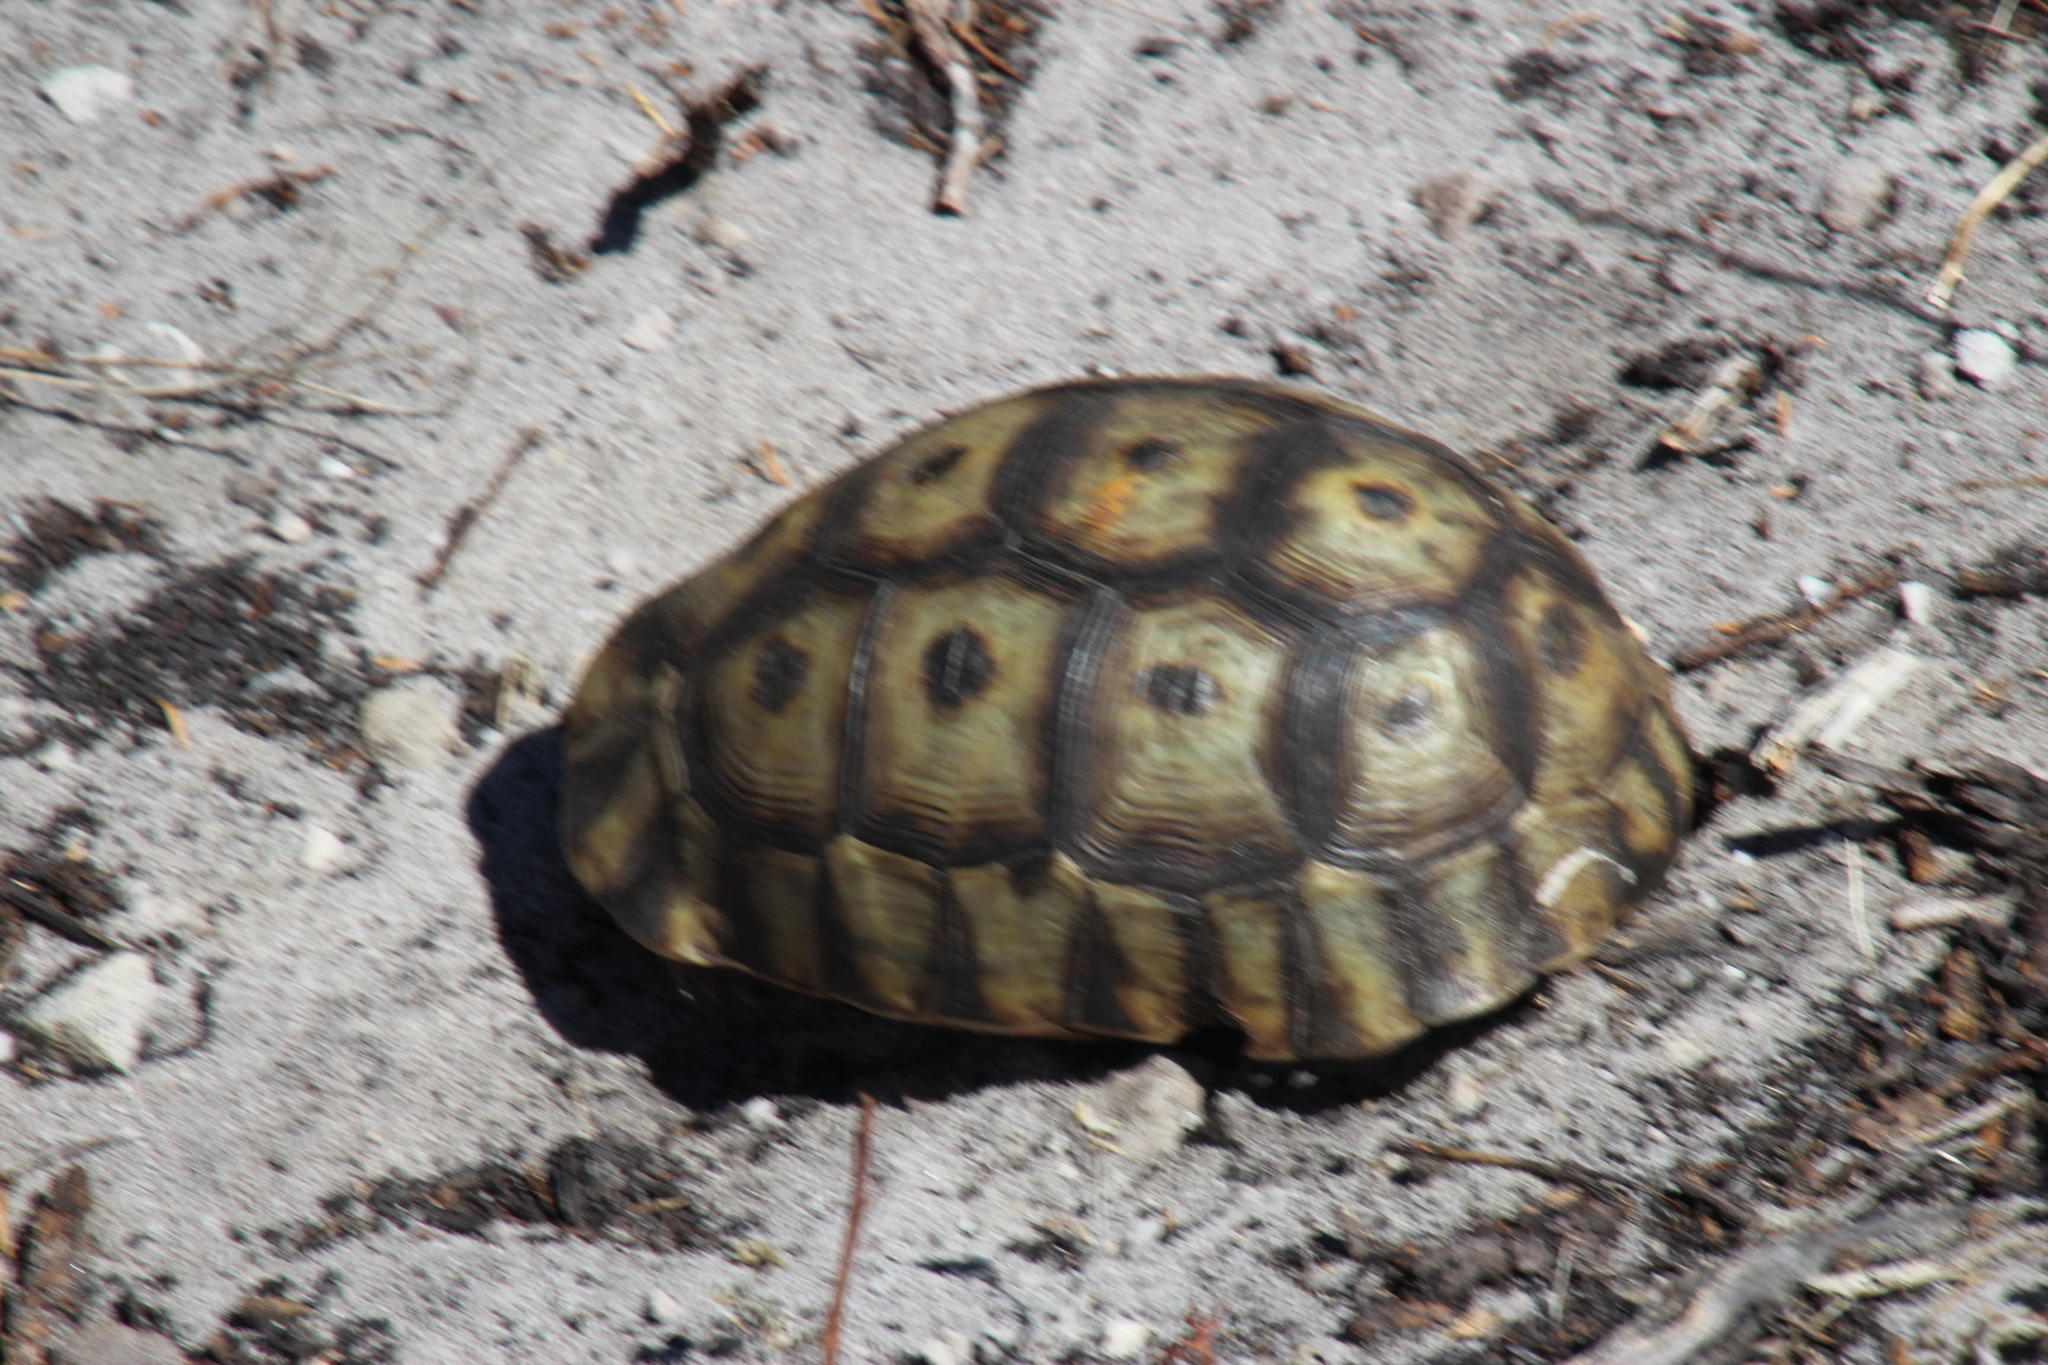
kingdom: Animalia
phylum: Chordata
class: Testudines
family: Testudinidae
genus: Chersina
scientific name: Chersina angulata
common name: South african bowsprit tortoise
